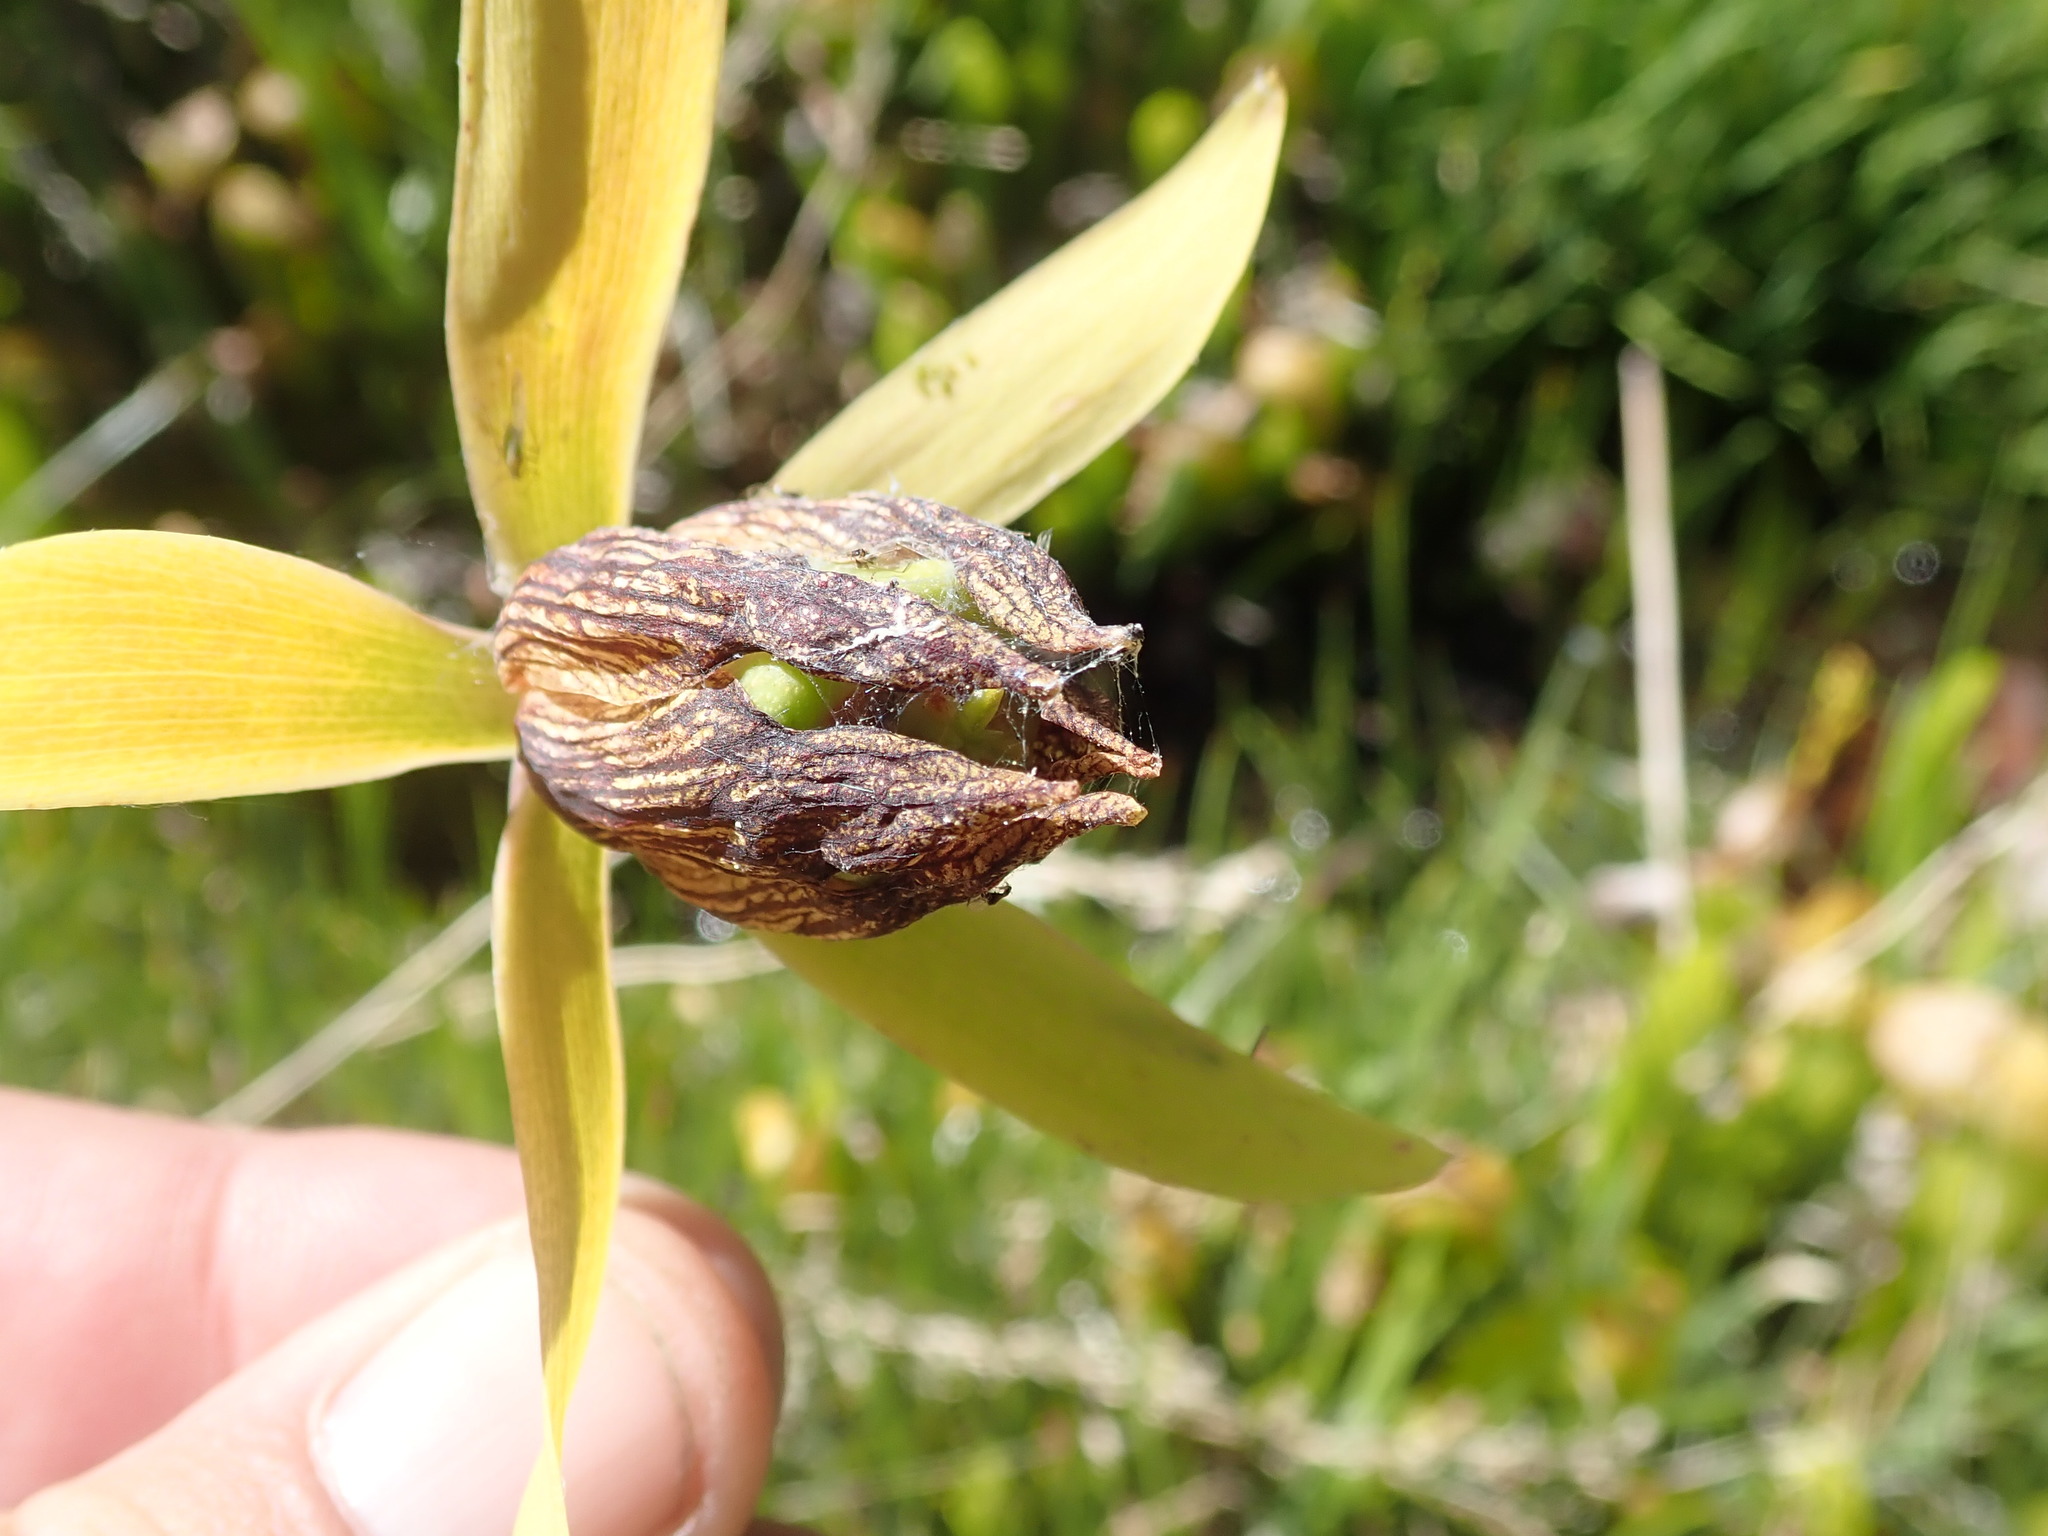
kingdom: Plantae
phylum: Tracheophyta
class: Magnoliopsida
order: Ericales
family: Sarraceniaceae
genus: Darlingtonia
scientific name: Darlingtonia californica
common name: California pitcher plant
